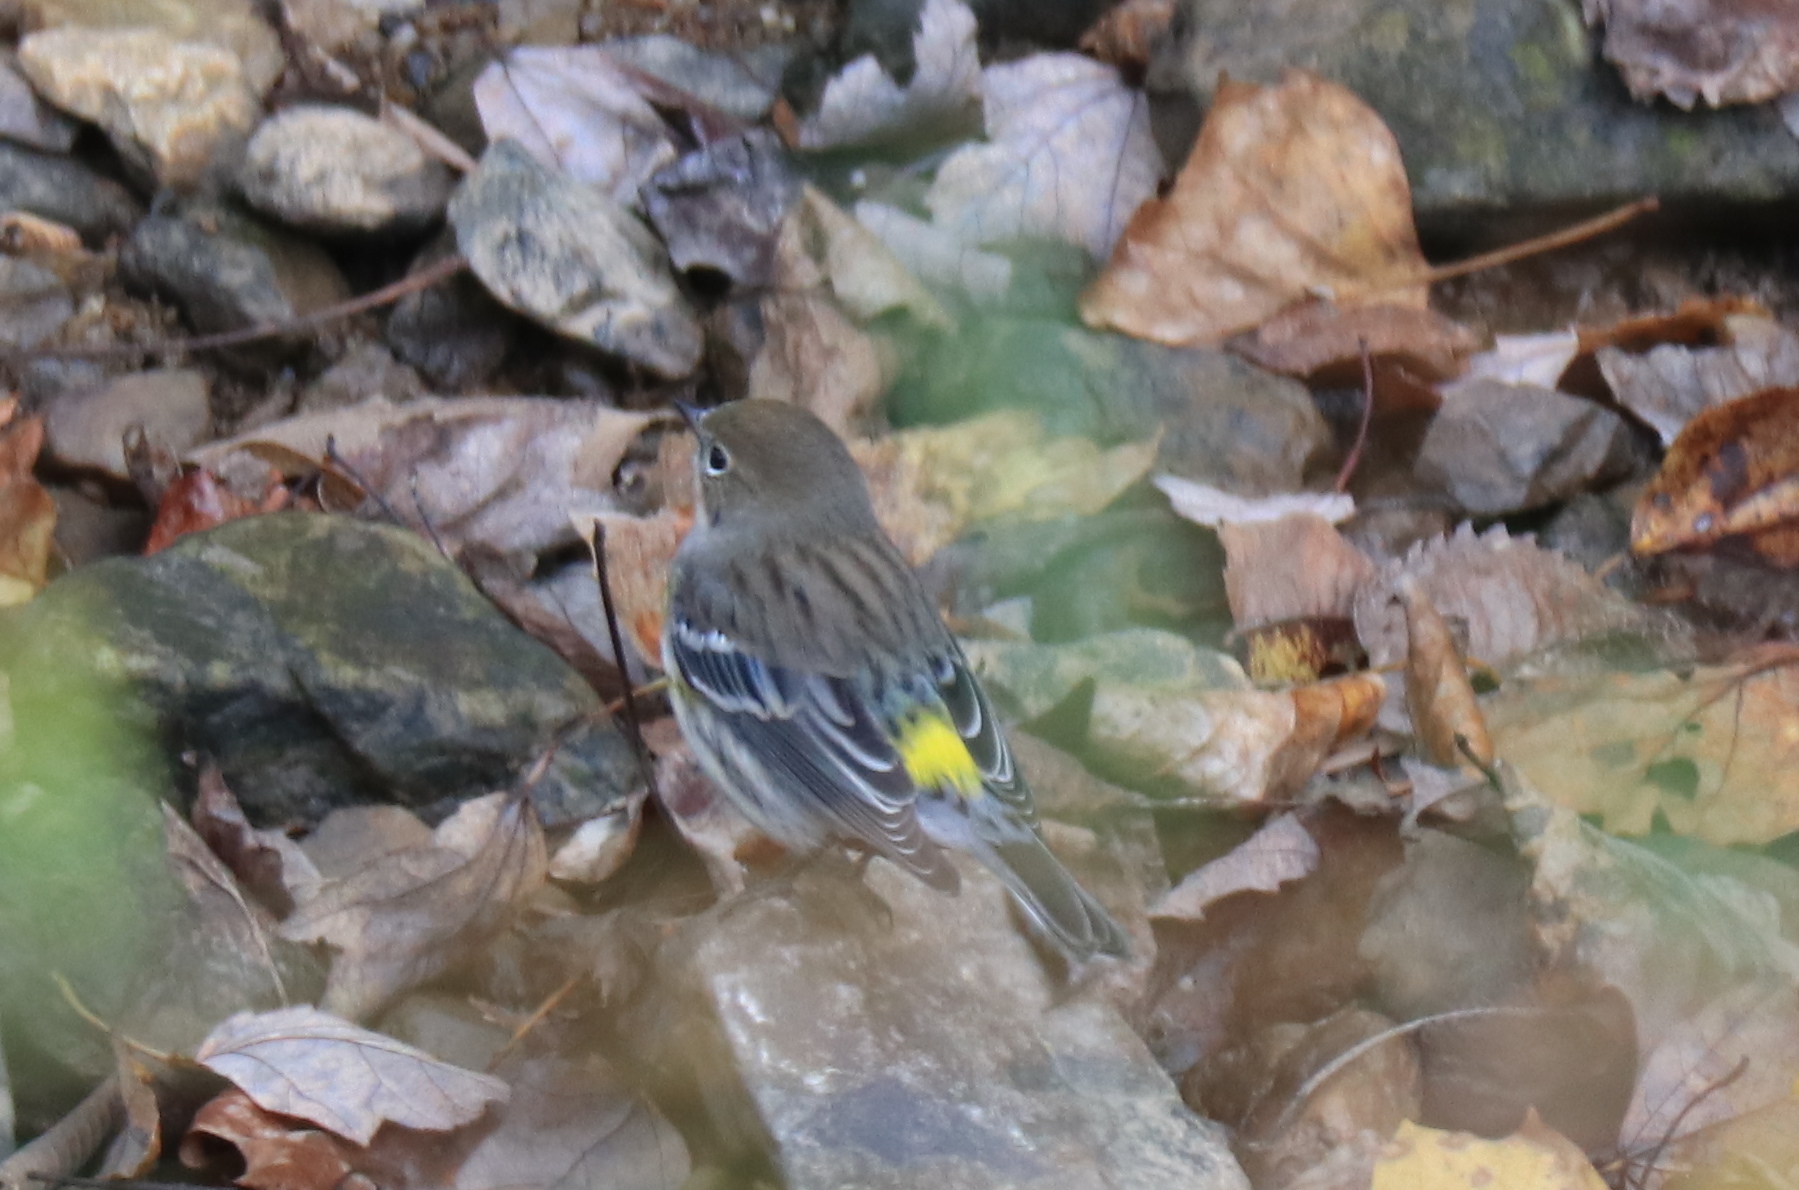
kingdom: Animalia
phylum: Chordata
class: Aves
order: Passeriformes
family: Parulidae
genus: Setophaga
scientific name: Setophaga coronata
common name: Myrtle warbler
